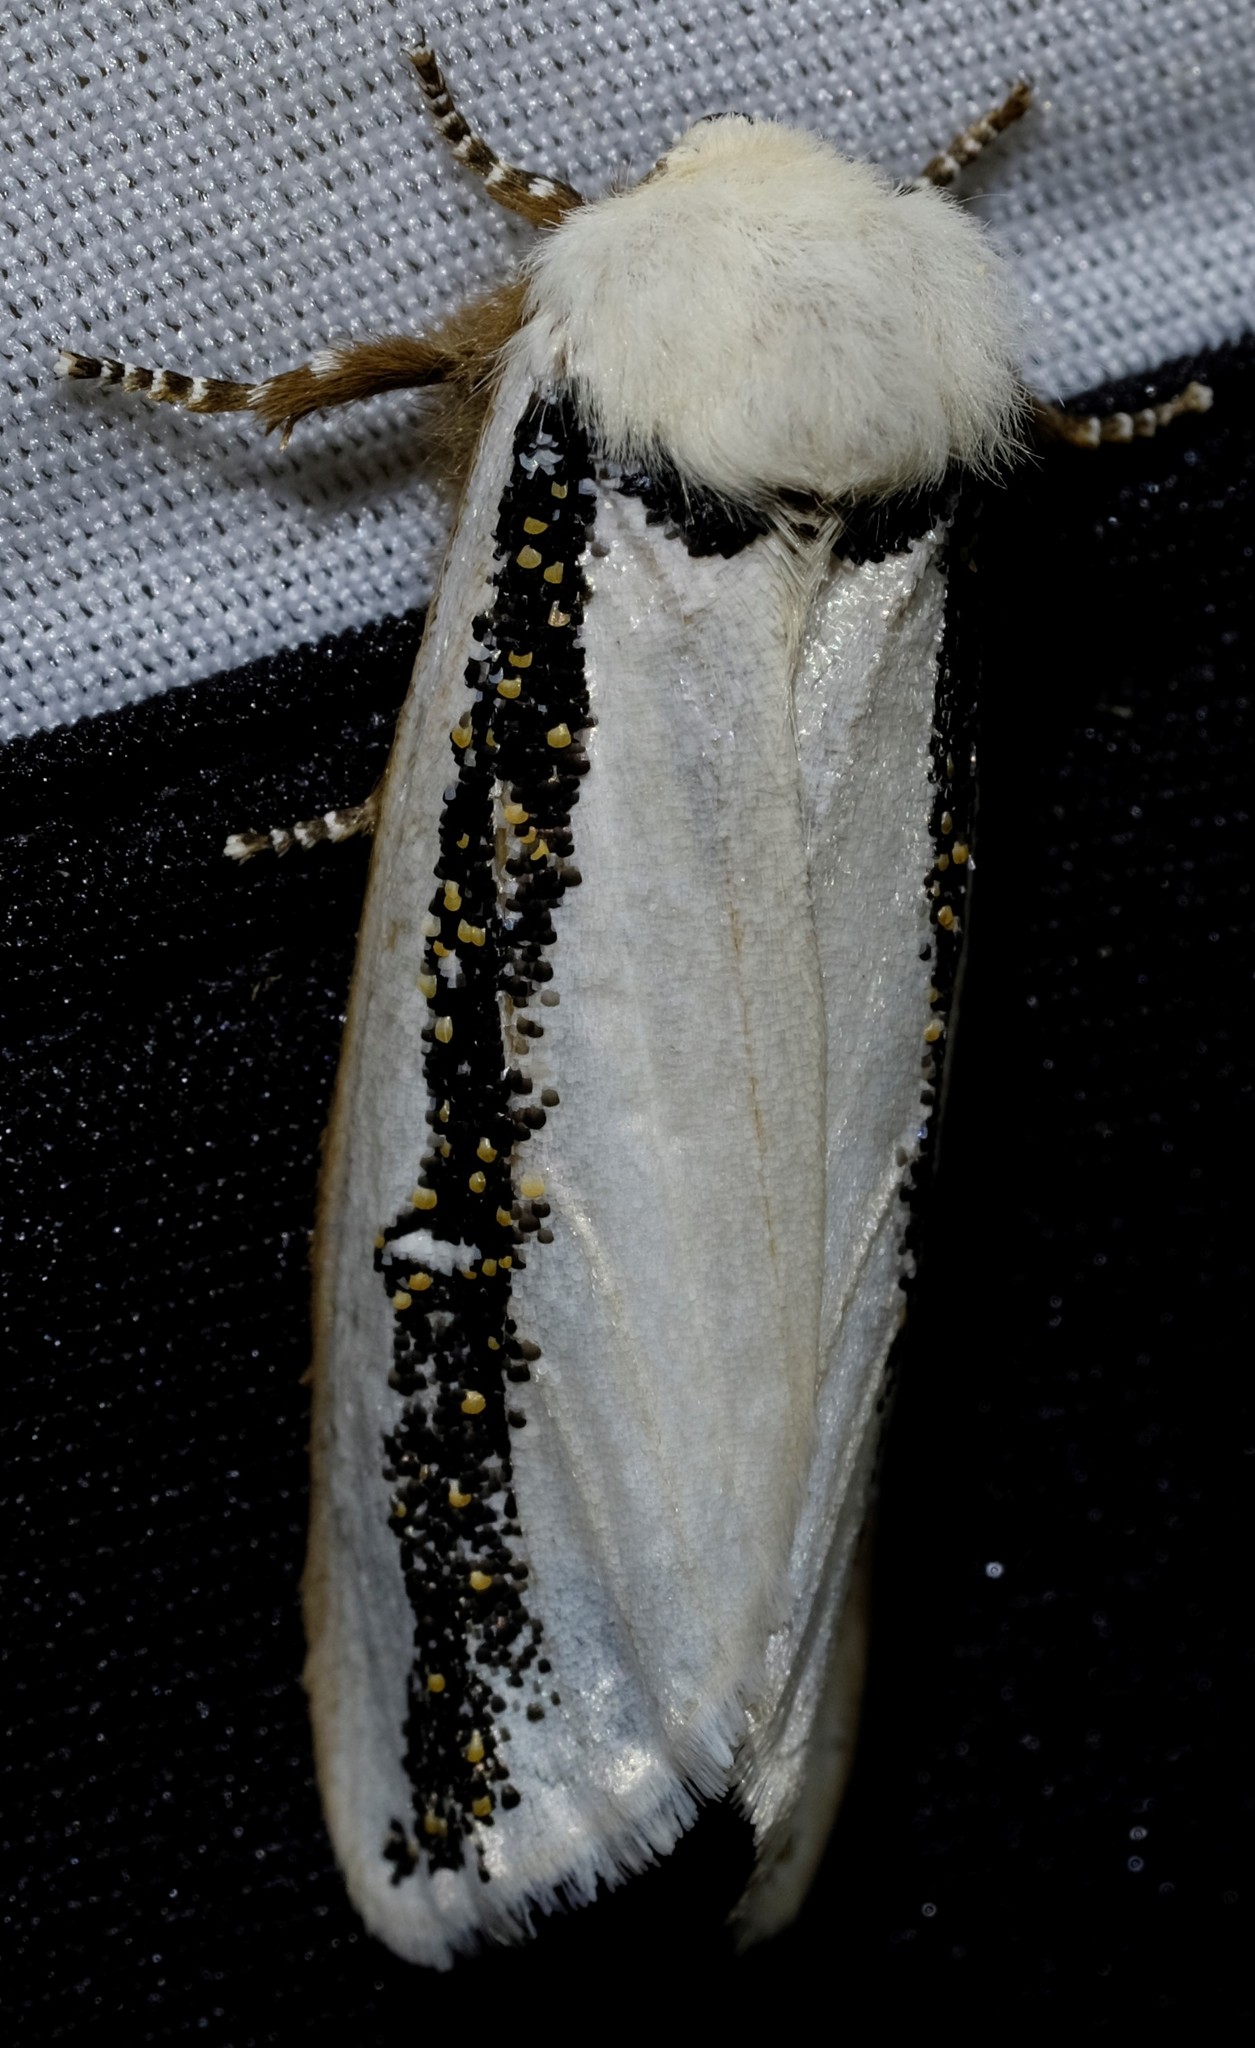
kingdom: Animalia
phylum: Arthropoda
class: Insecta
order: Lepidoptera
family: Oenosandridae
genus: Oenosandra
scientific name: Oenosandra boisduvalii
